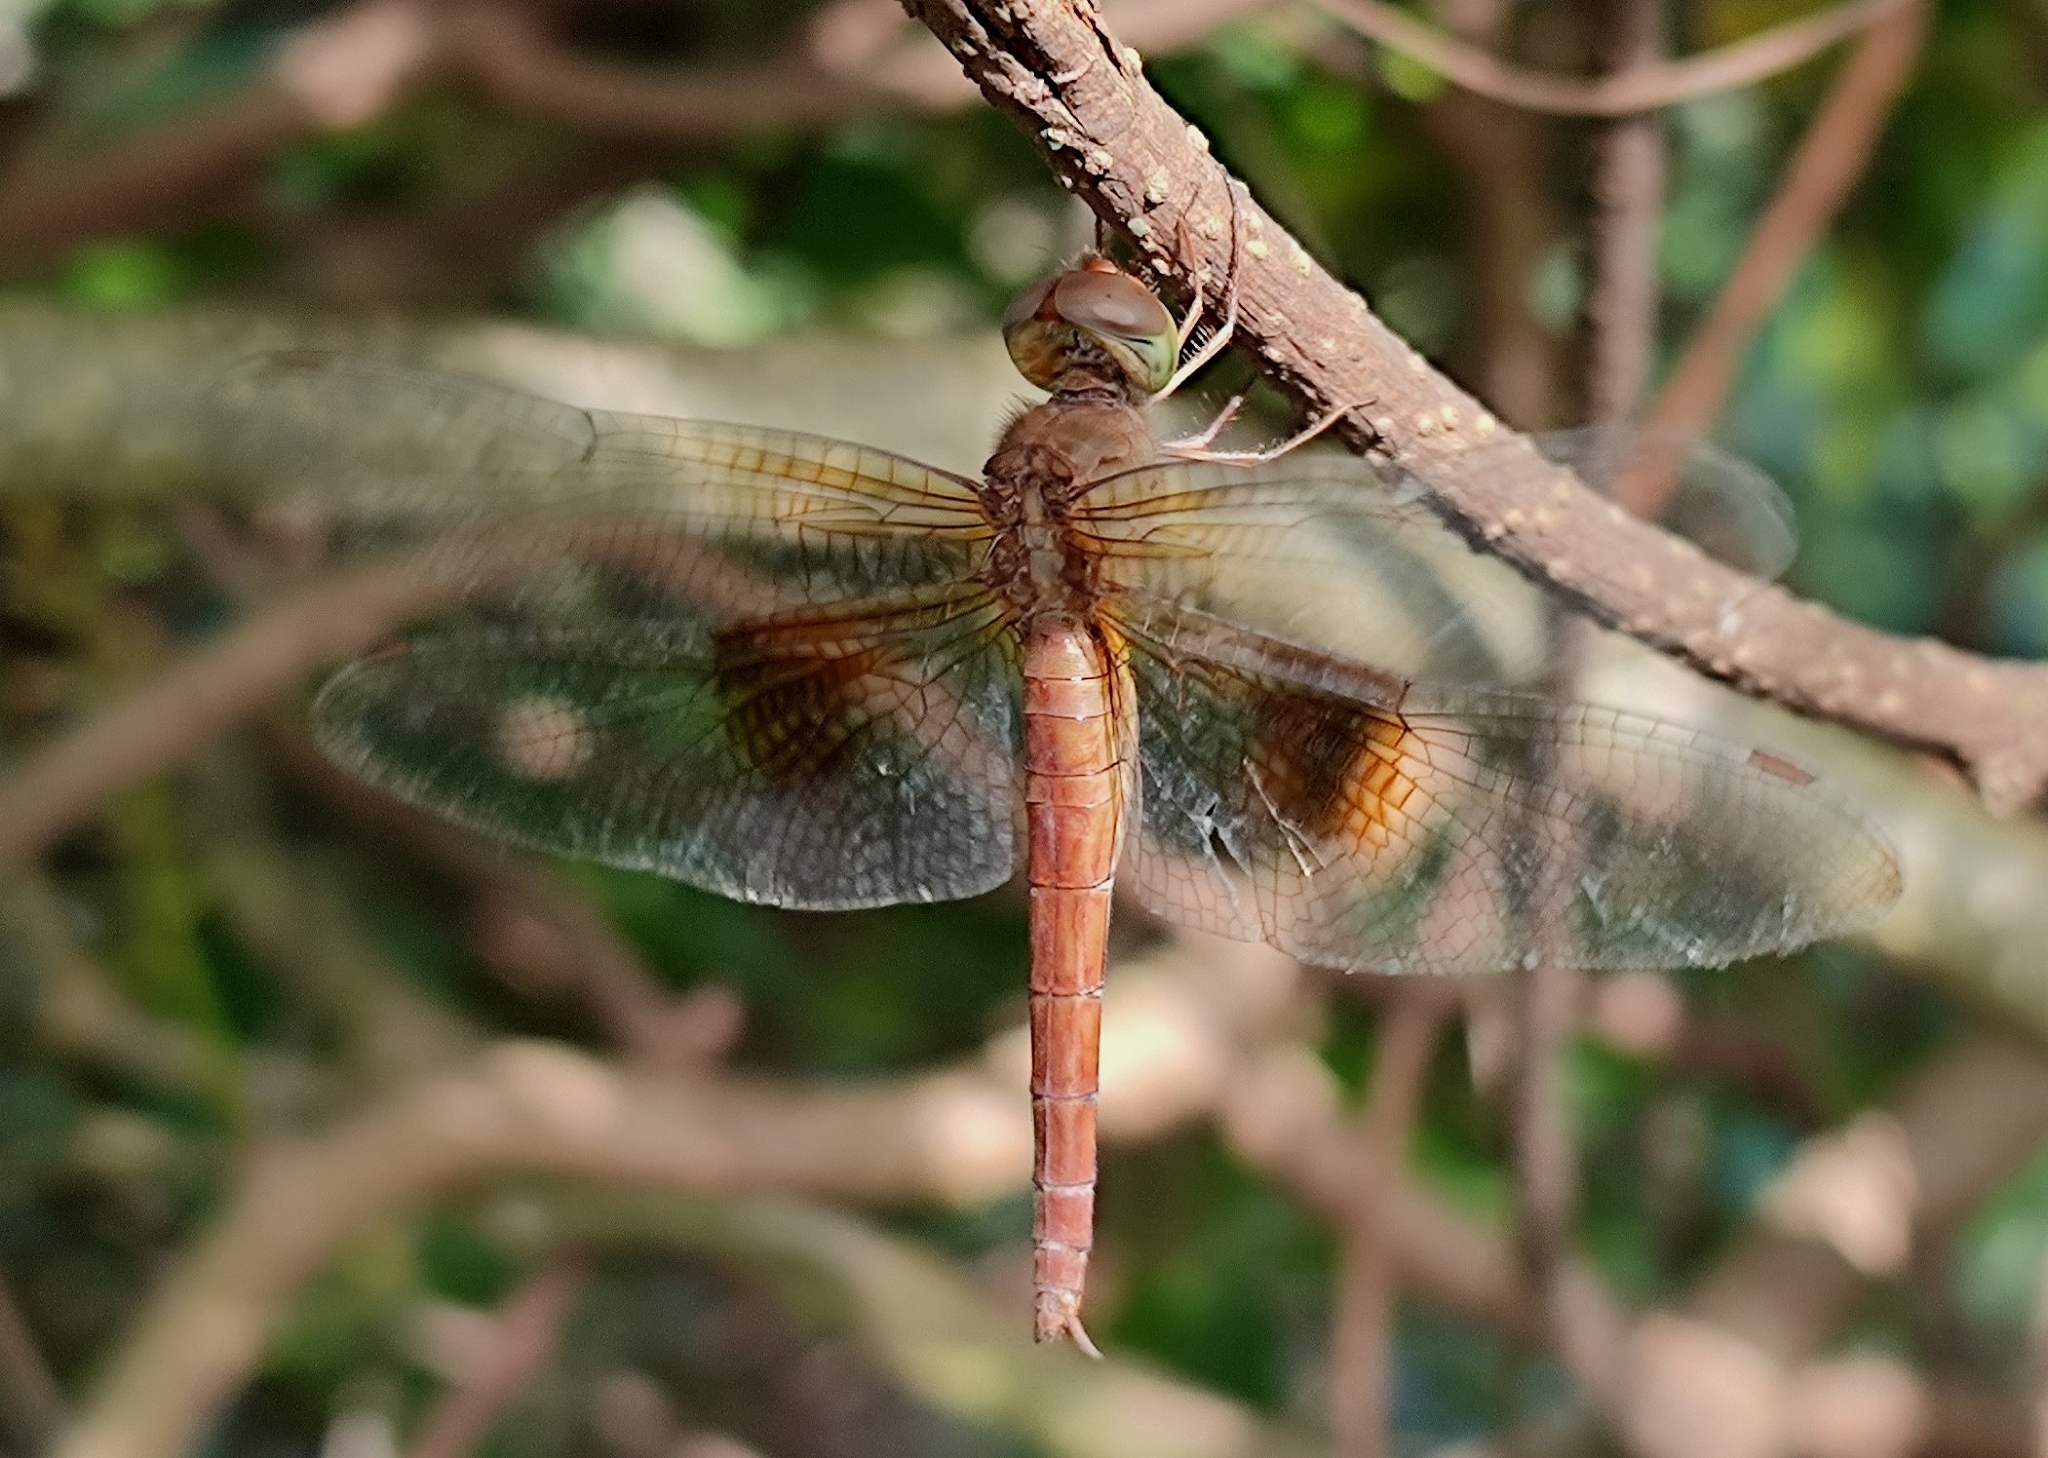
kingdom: Animalia
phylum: Arthropoda
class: Insecta
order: Odonata
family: Libellulidae
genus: Tholymis
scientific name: Tholymis tillarga
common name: Coral-tailed cloud wing
